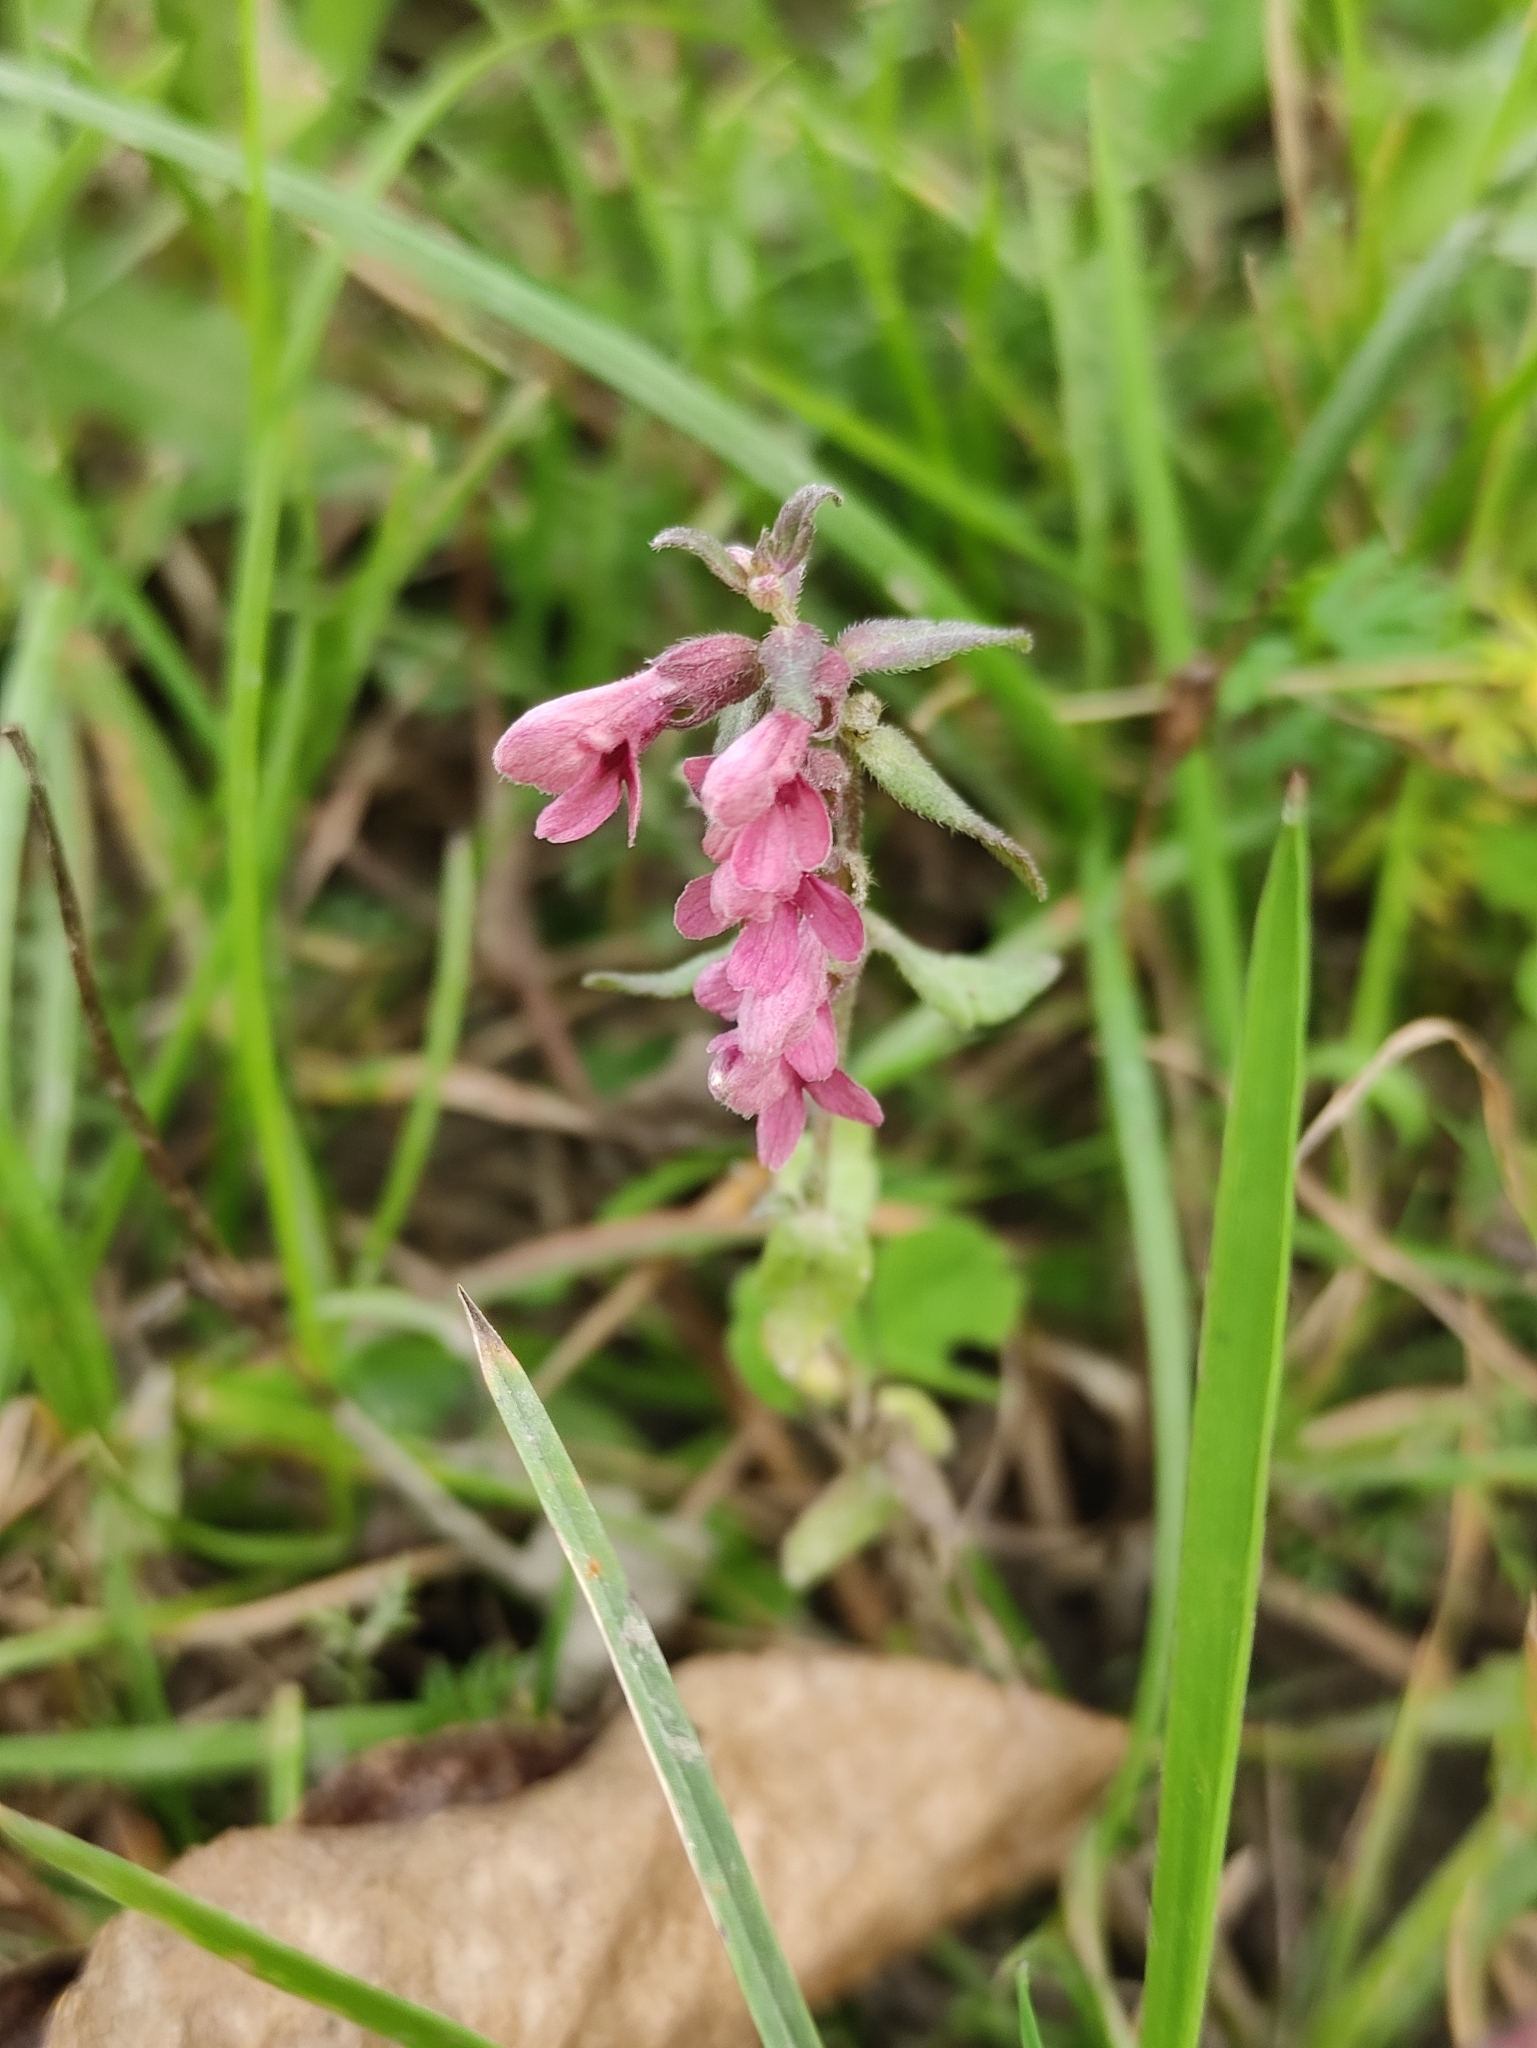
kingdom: Plantae
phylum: Tracheophyta
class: Magnoliopsida
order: Lamiales
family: Orobanchaceae
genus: Odontites
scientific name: Odontites vulgaris
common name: Broomrape
